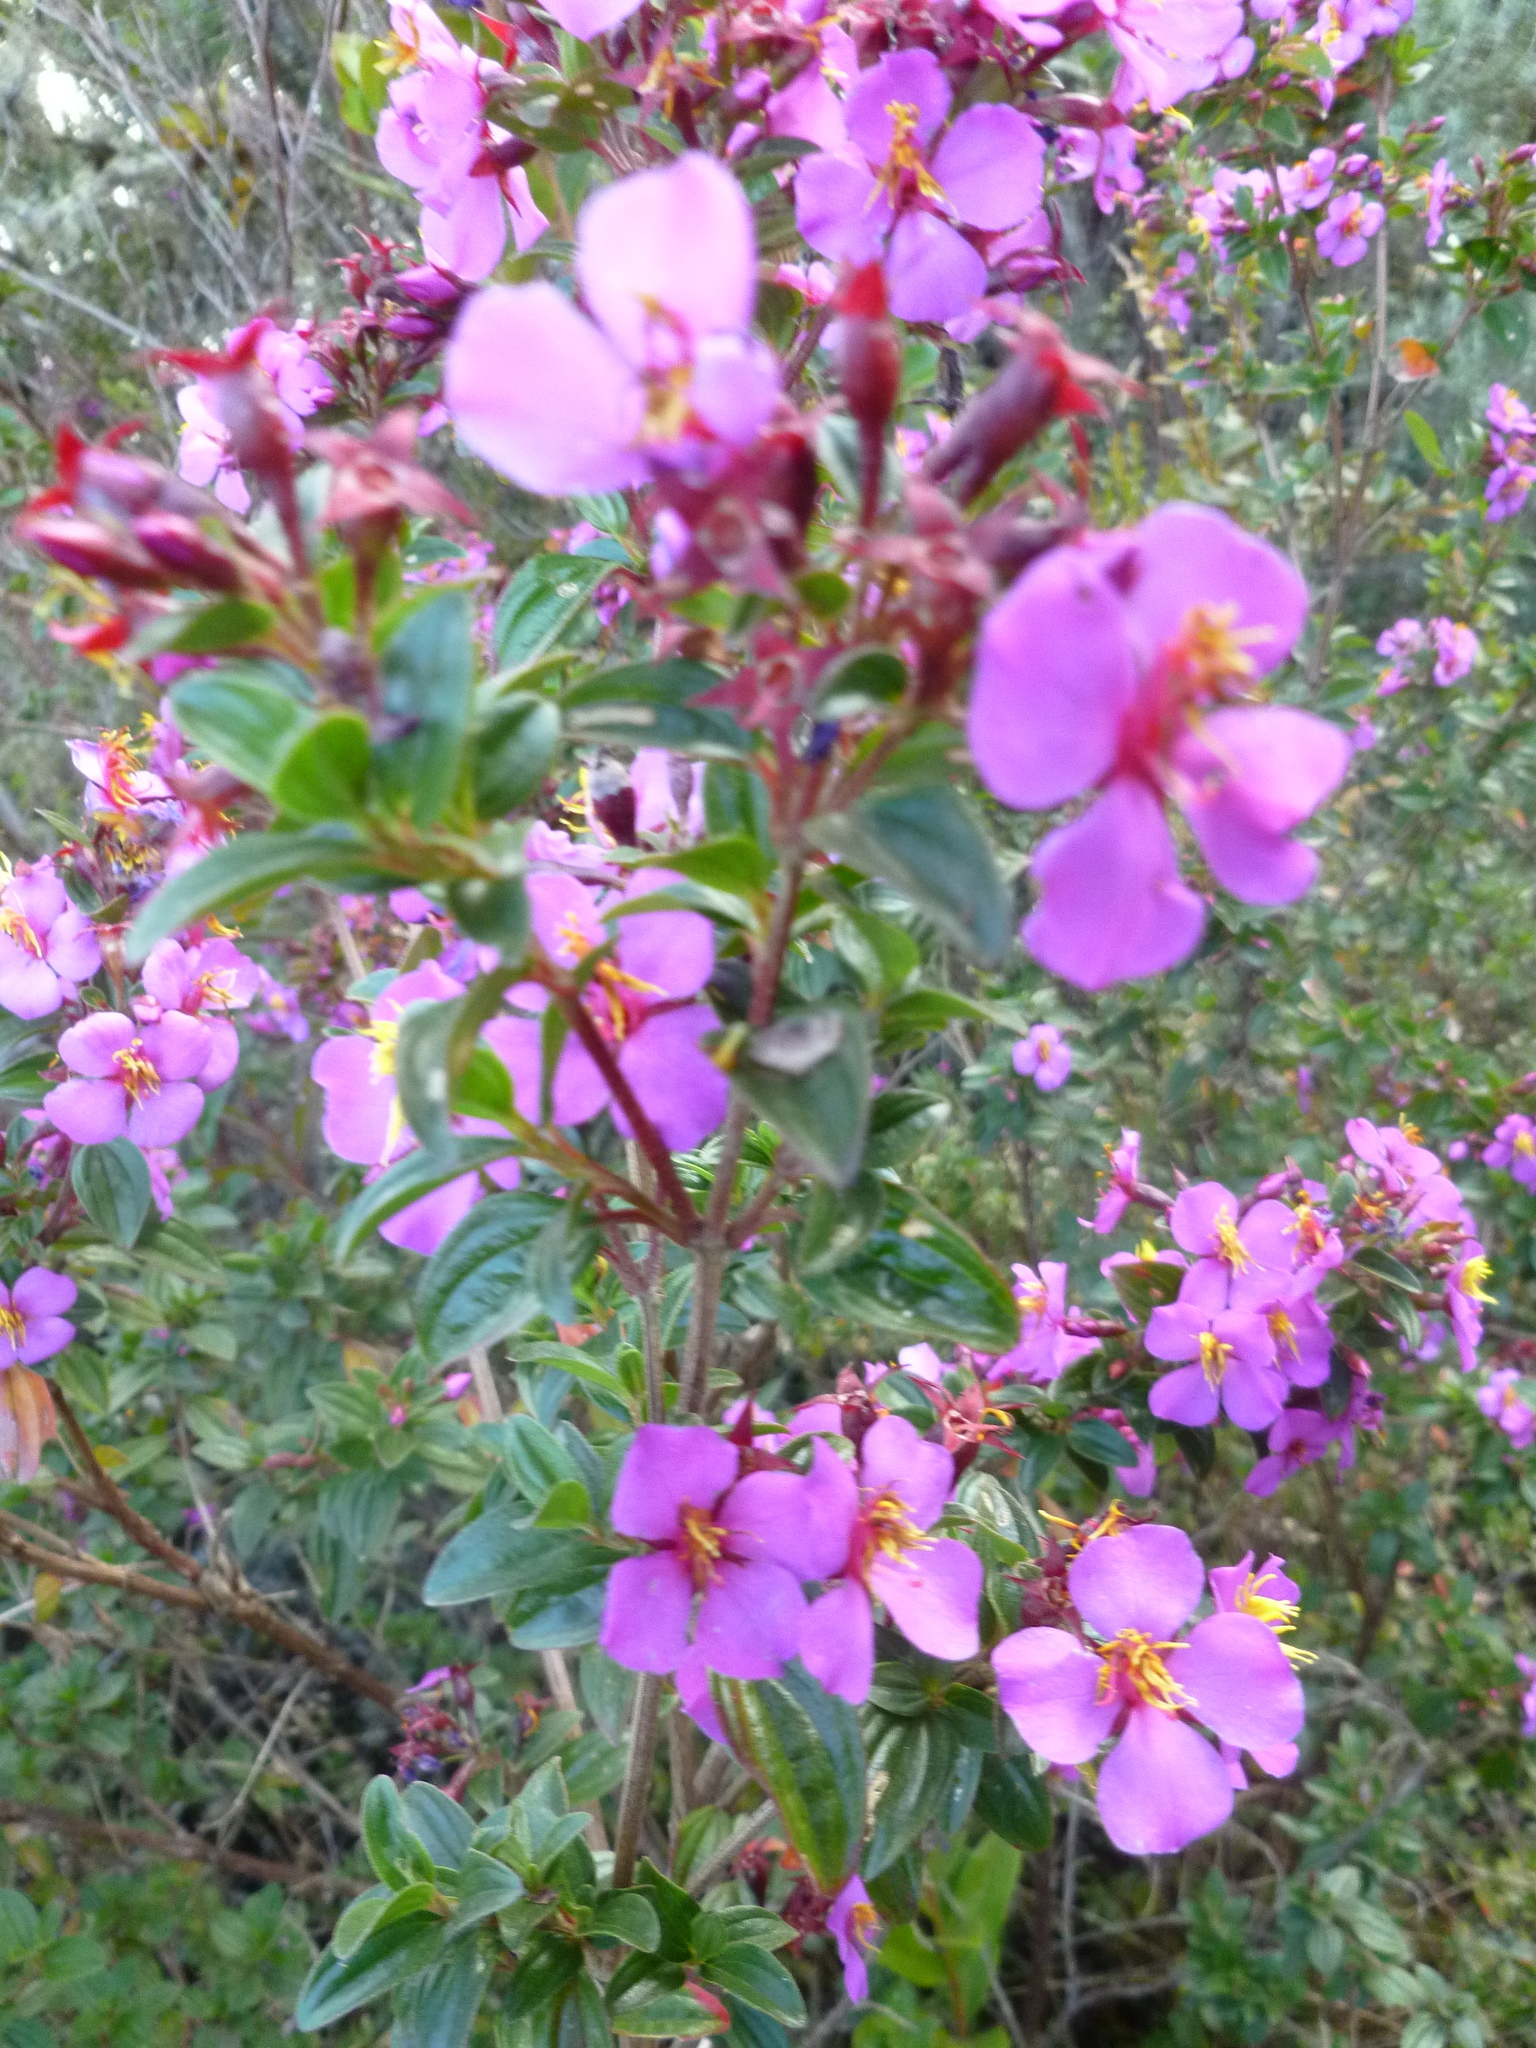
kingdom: Plantae
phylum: Tracheophyta
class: Magnoliopsida
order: Myrtales
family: Melastomataceae
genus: Monochaetum
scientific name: Monochaetum myrtoideum
